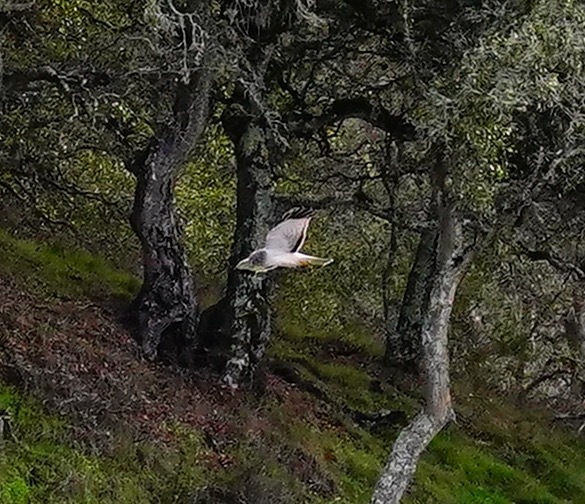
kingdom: Animalia
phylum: Chordata
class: Aves
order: Accipitriformes
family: Accipitridae
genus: Circus
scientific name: Circus cyaneus
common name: Hen harrier
